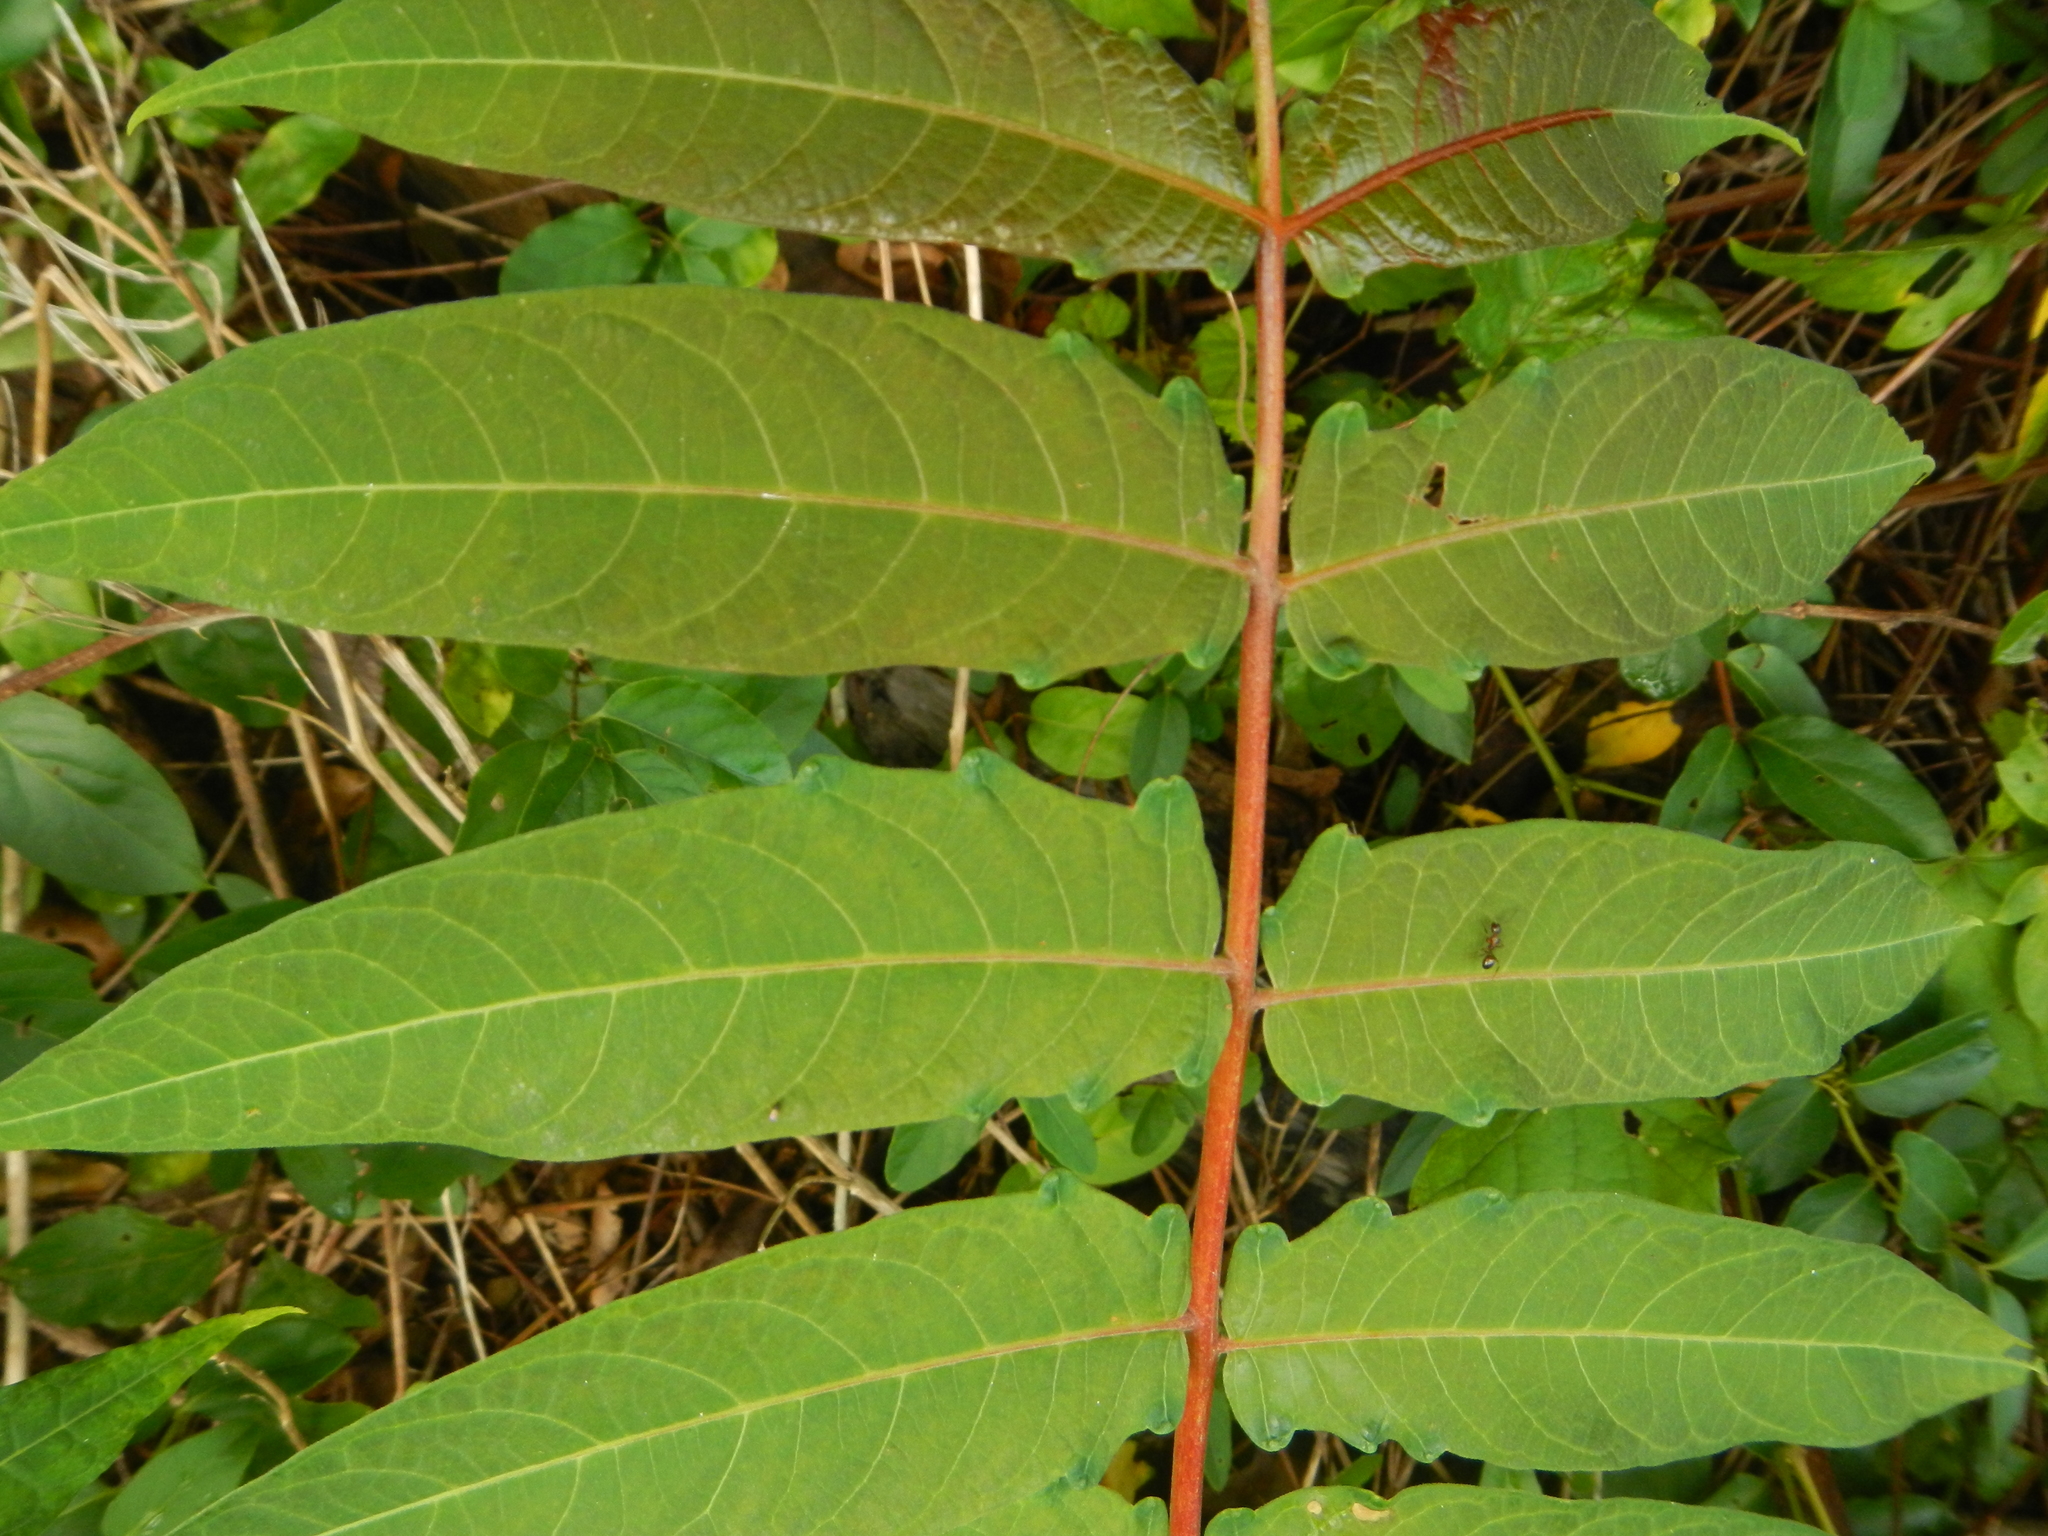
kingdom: Plantae
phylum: Tracheophyta
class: Magnoliopsida
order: Sapindales
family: Simaroubaceae
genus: Ailanthus
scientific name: Ailanthus altissima
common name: Tree-of-heaven
